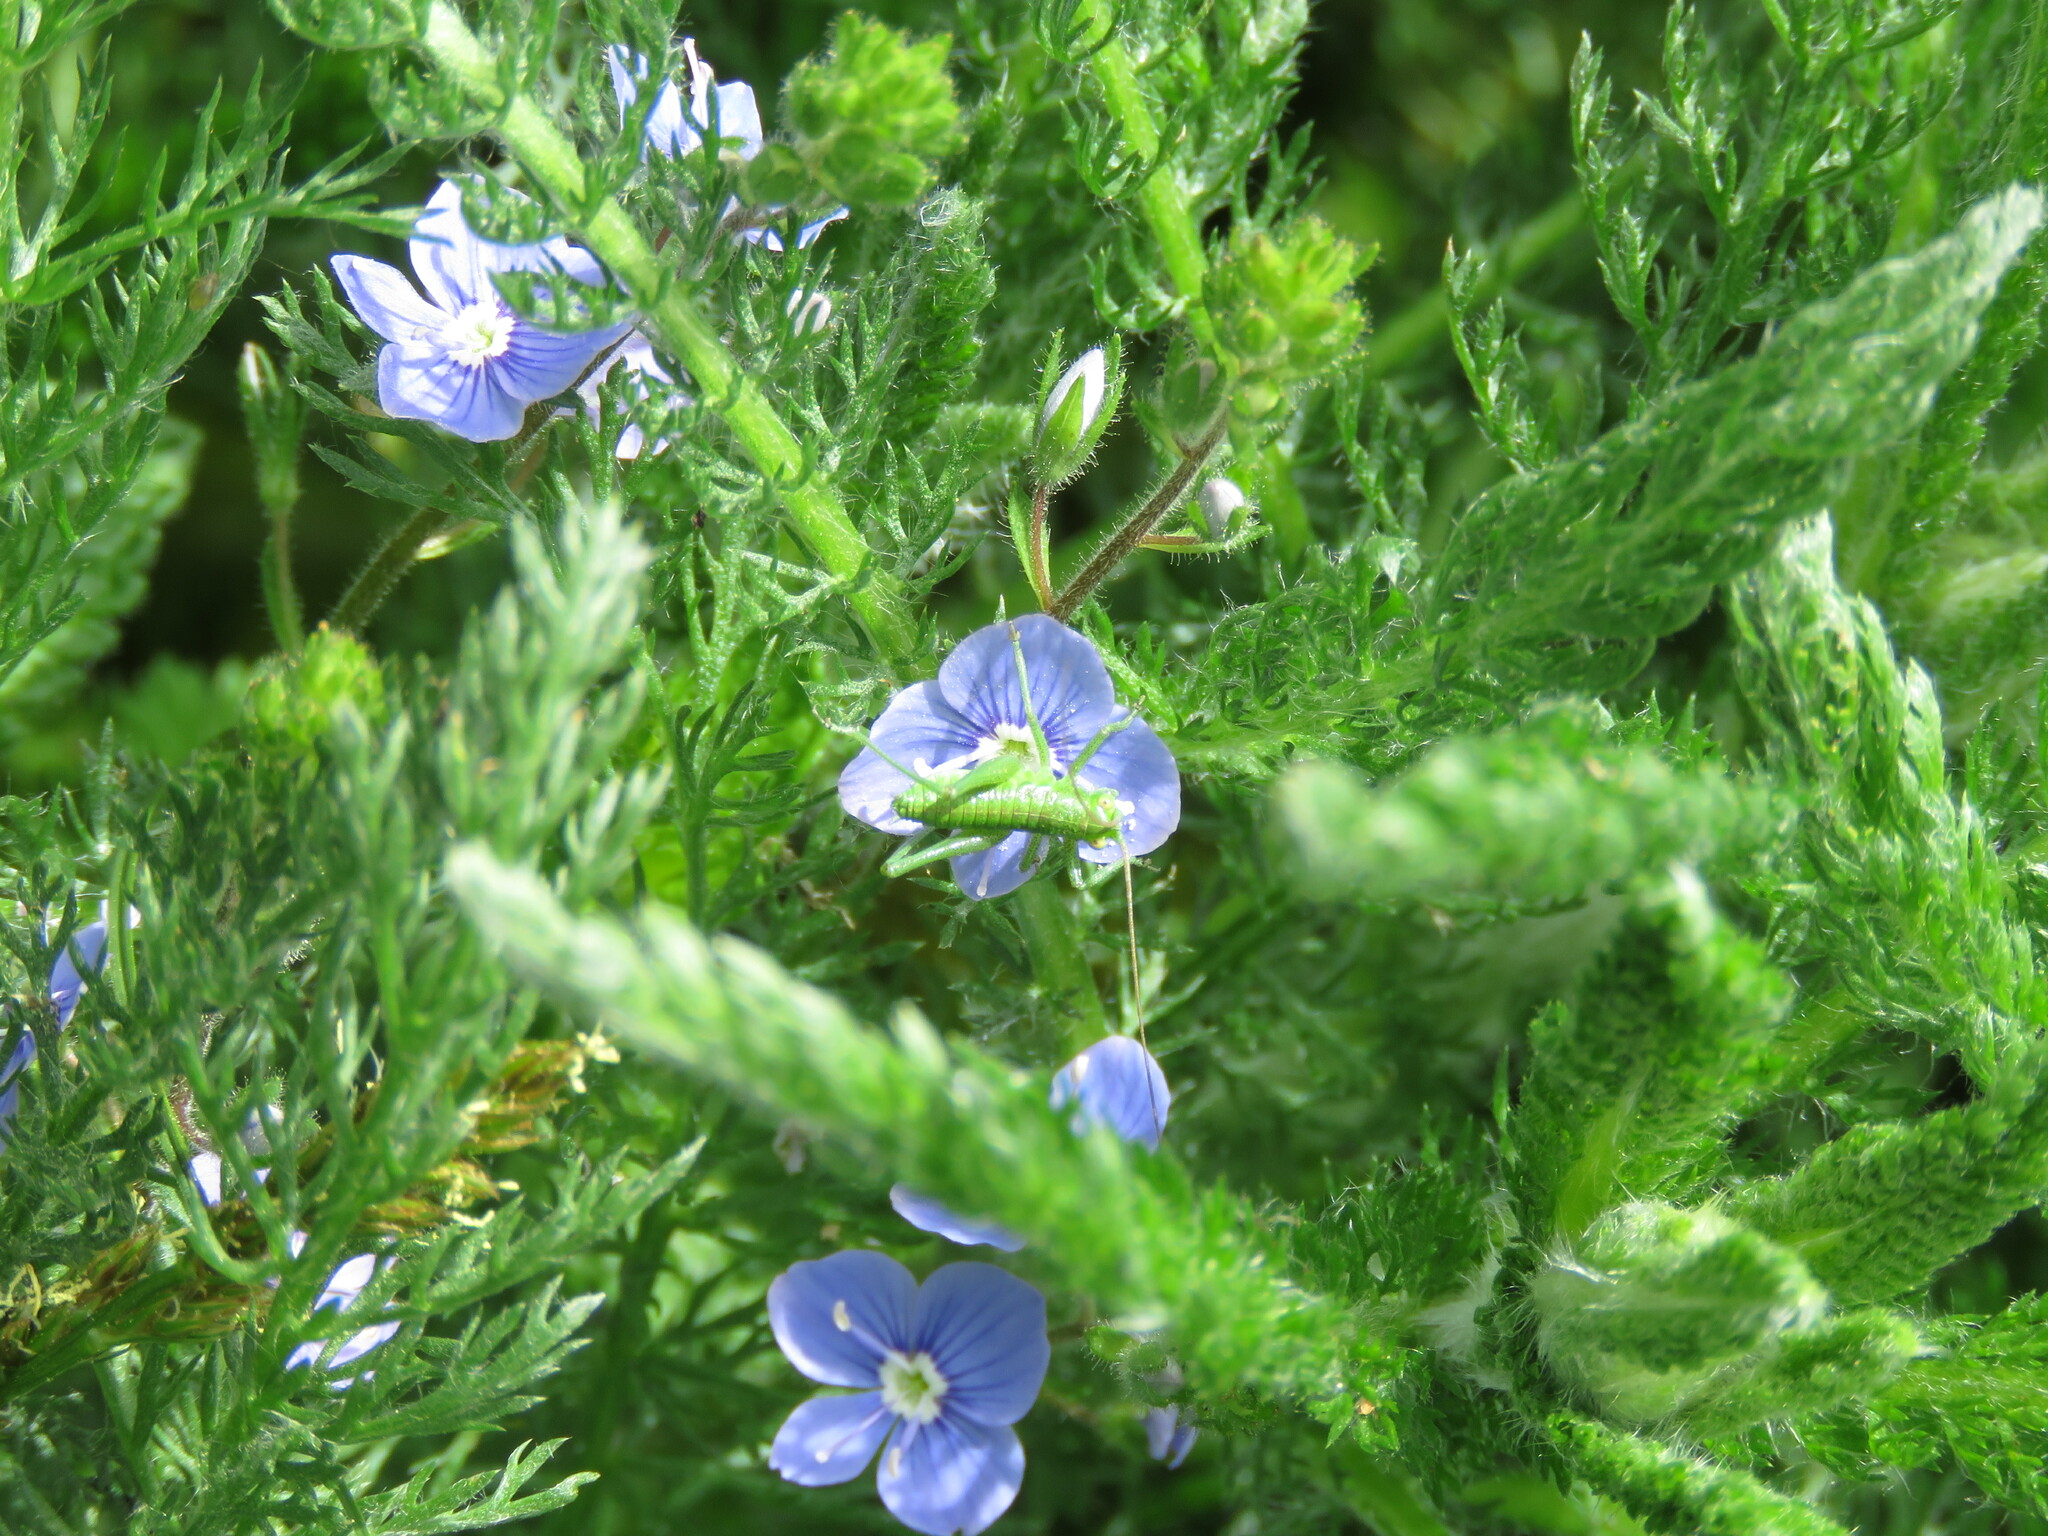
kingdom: Animalia
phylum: Arthropoda
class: Insecta
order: Orthoptera
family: Tettigoniidae
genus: Tettigonia
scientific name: Tettigonia viridissima
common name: Great green bush-cricket
